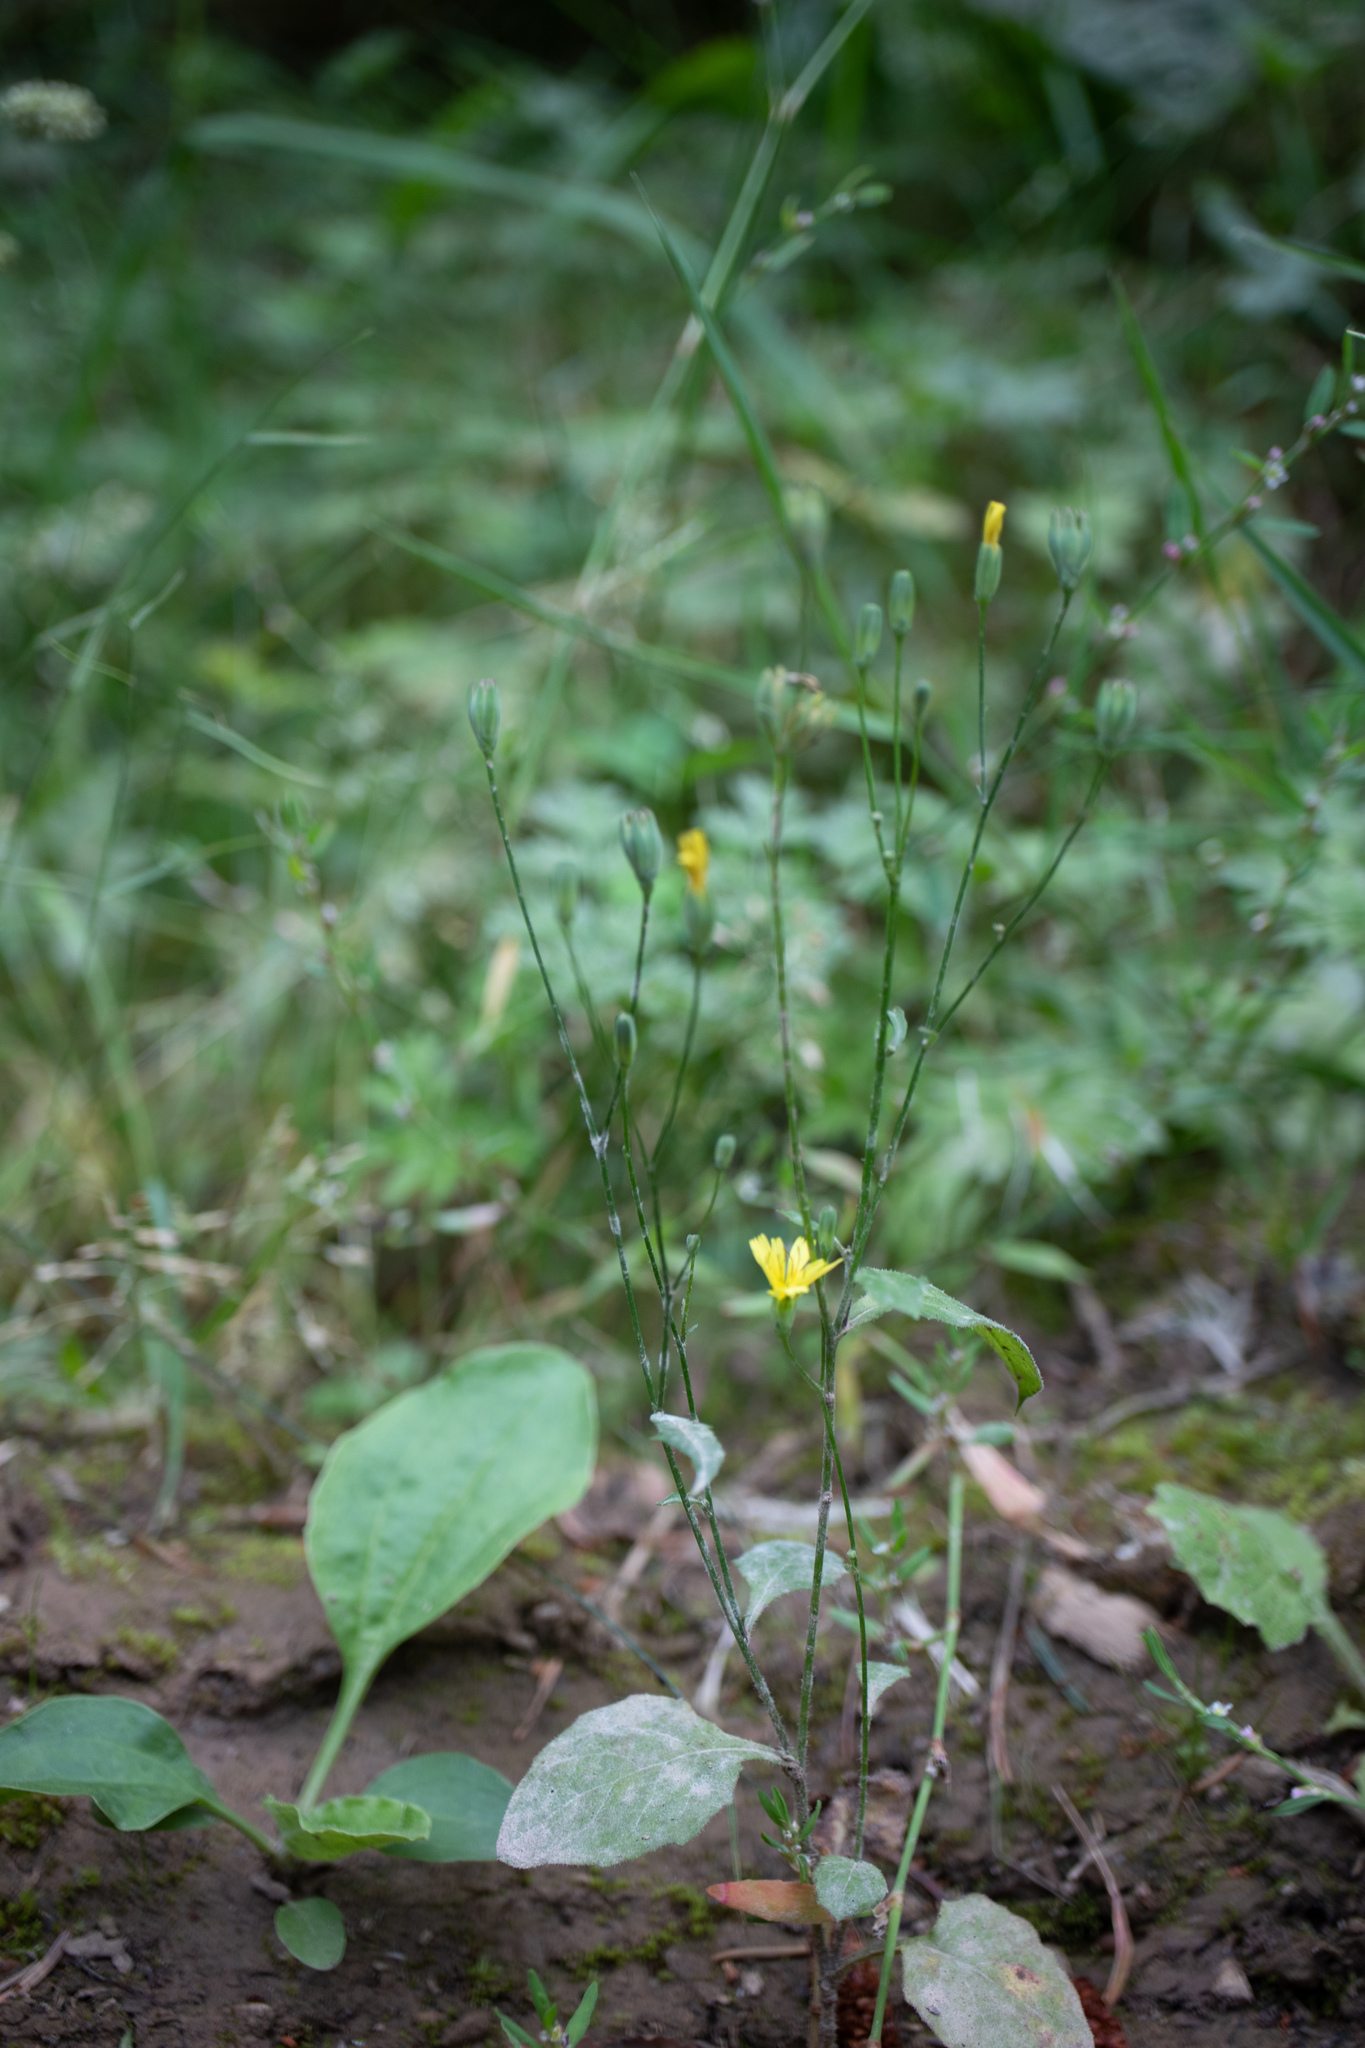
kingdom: Plantae
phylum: Tracheophyta
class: Magnoliopsida
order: Asterales
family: Asteraceae
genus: Lapsana
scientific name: Lapsana communis
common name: Nipplewort
